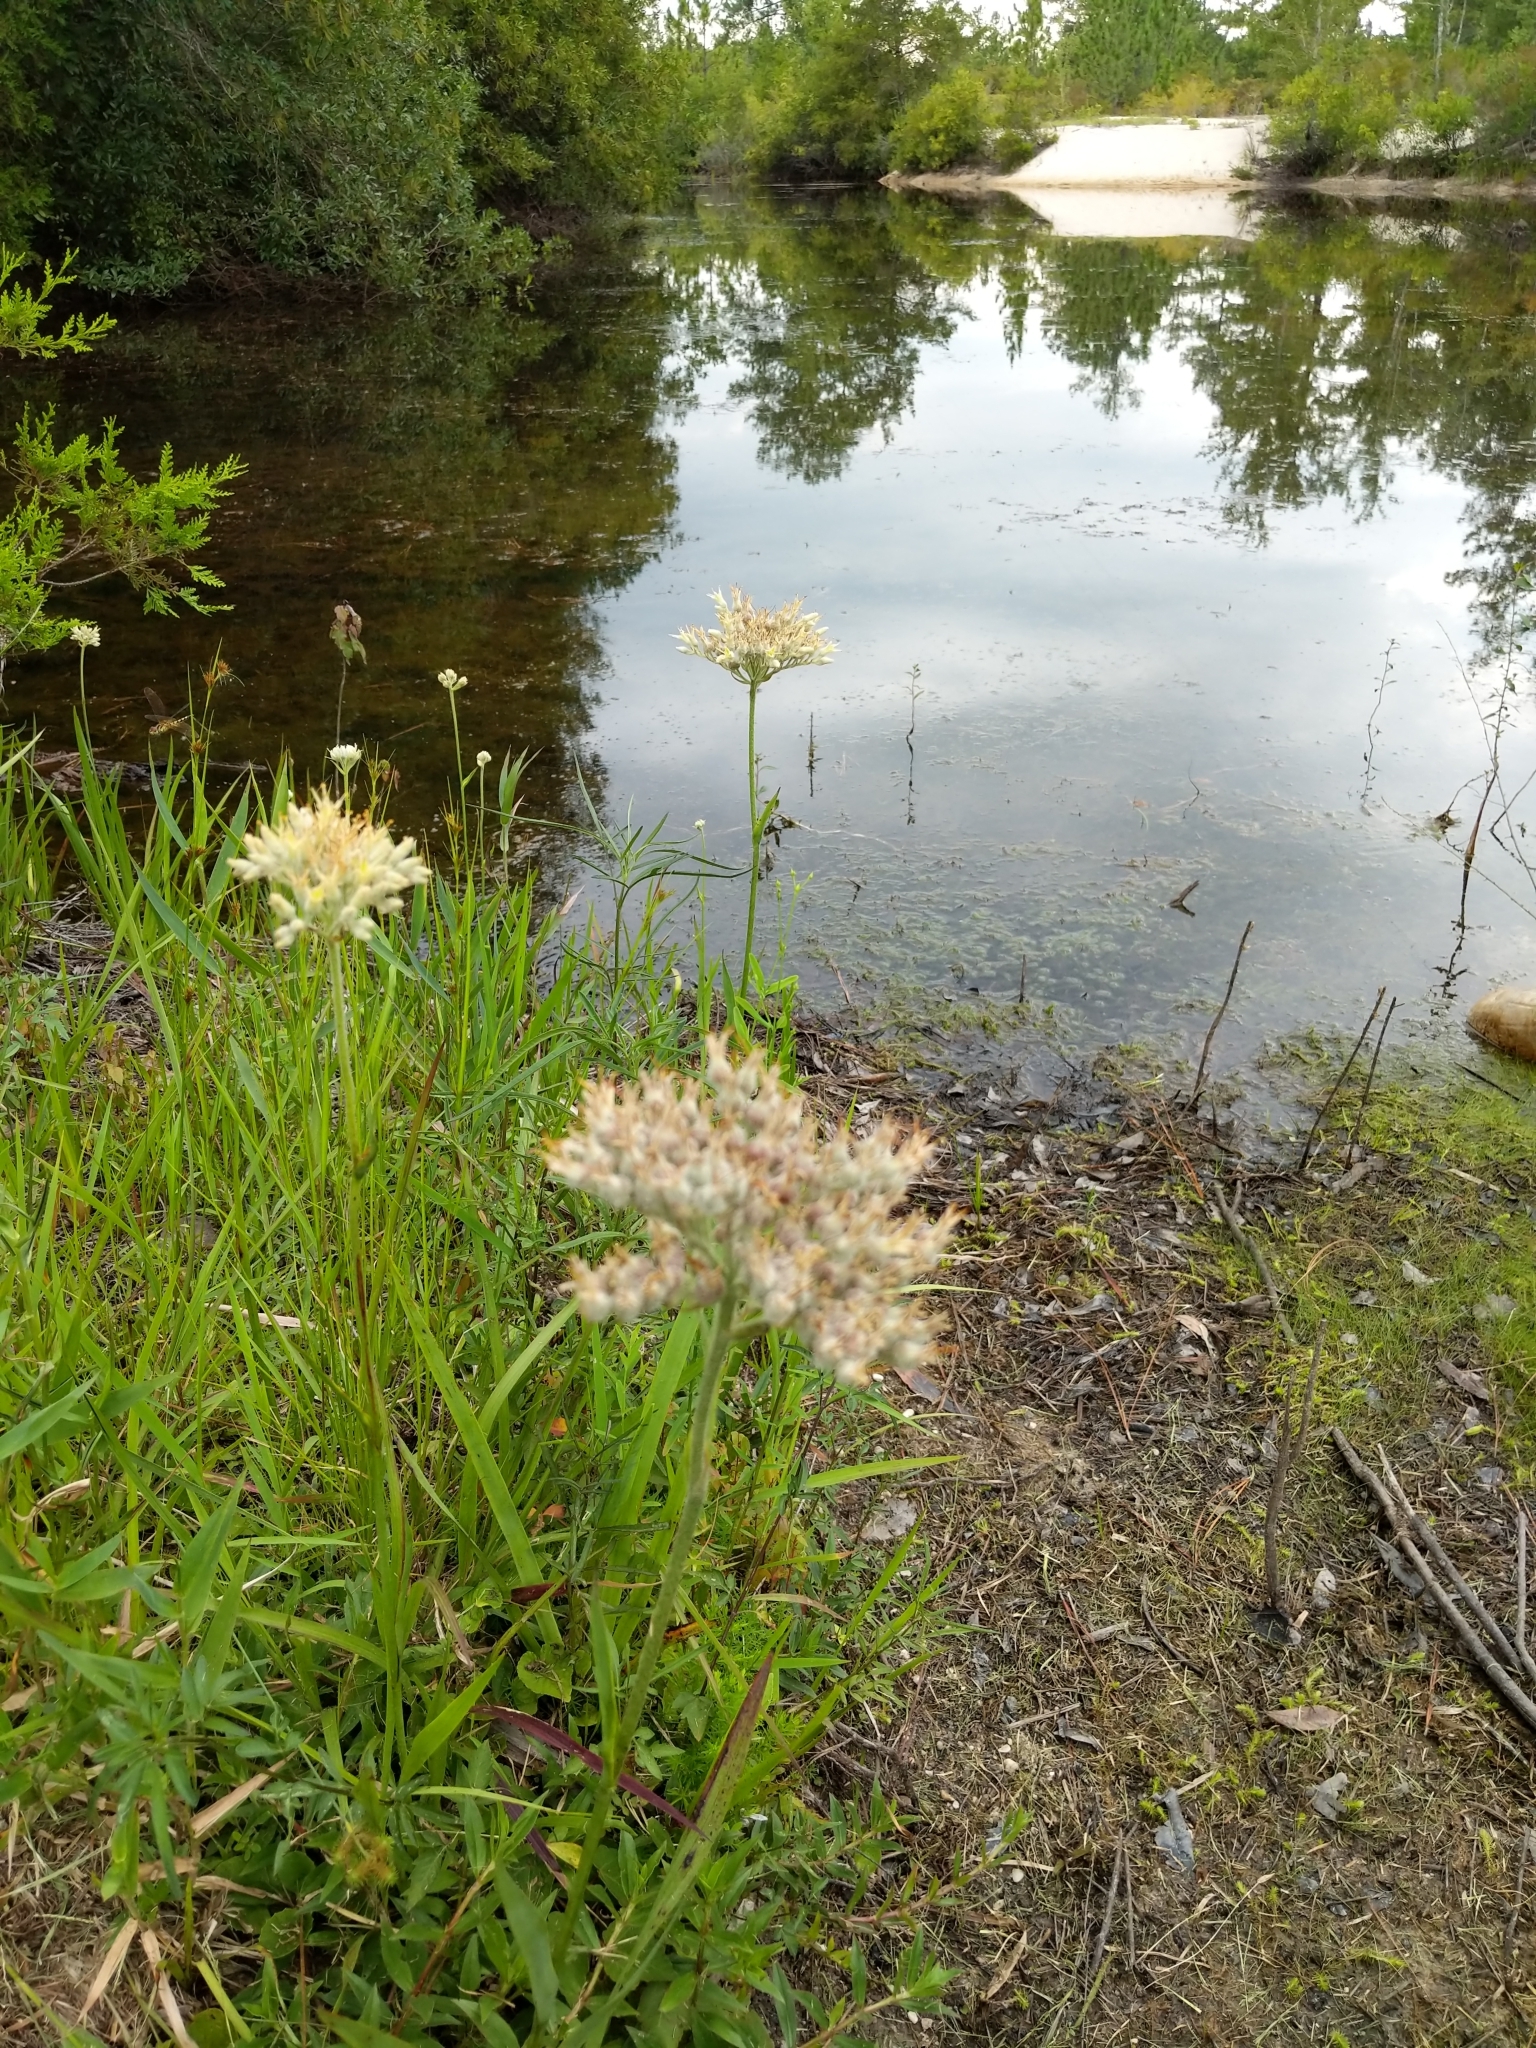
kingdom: Plantae
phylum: Tracheophyta
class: Liliopsida
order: Commelinales
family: Haemodoraceae
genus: Lachnanthes
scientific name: Lachnanthes caroliana
